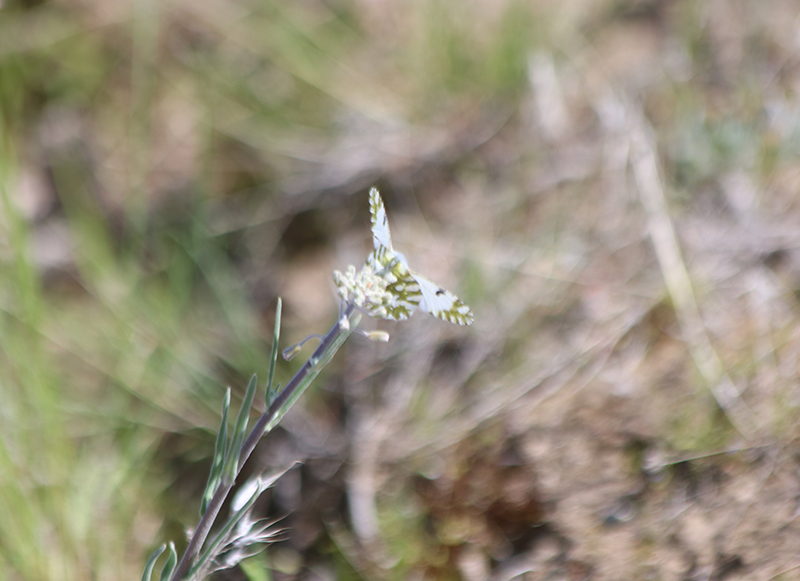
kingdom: Animalia
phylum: Arthropoda
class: Insecta
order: Lepidoptera
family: Pieridae
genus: Euchloe
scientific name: Euchloe lotta
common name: Desert marble
